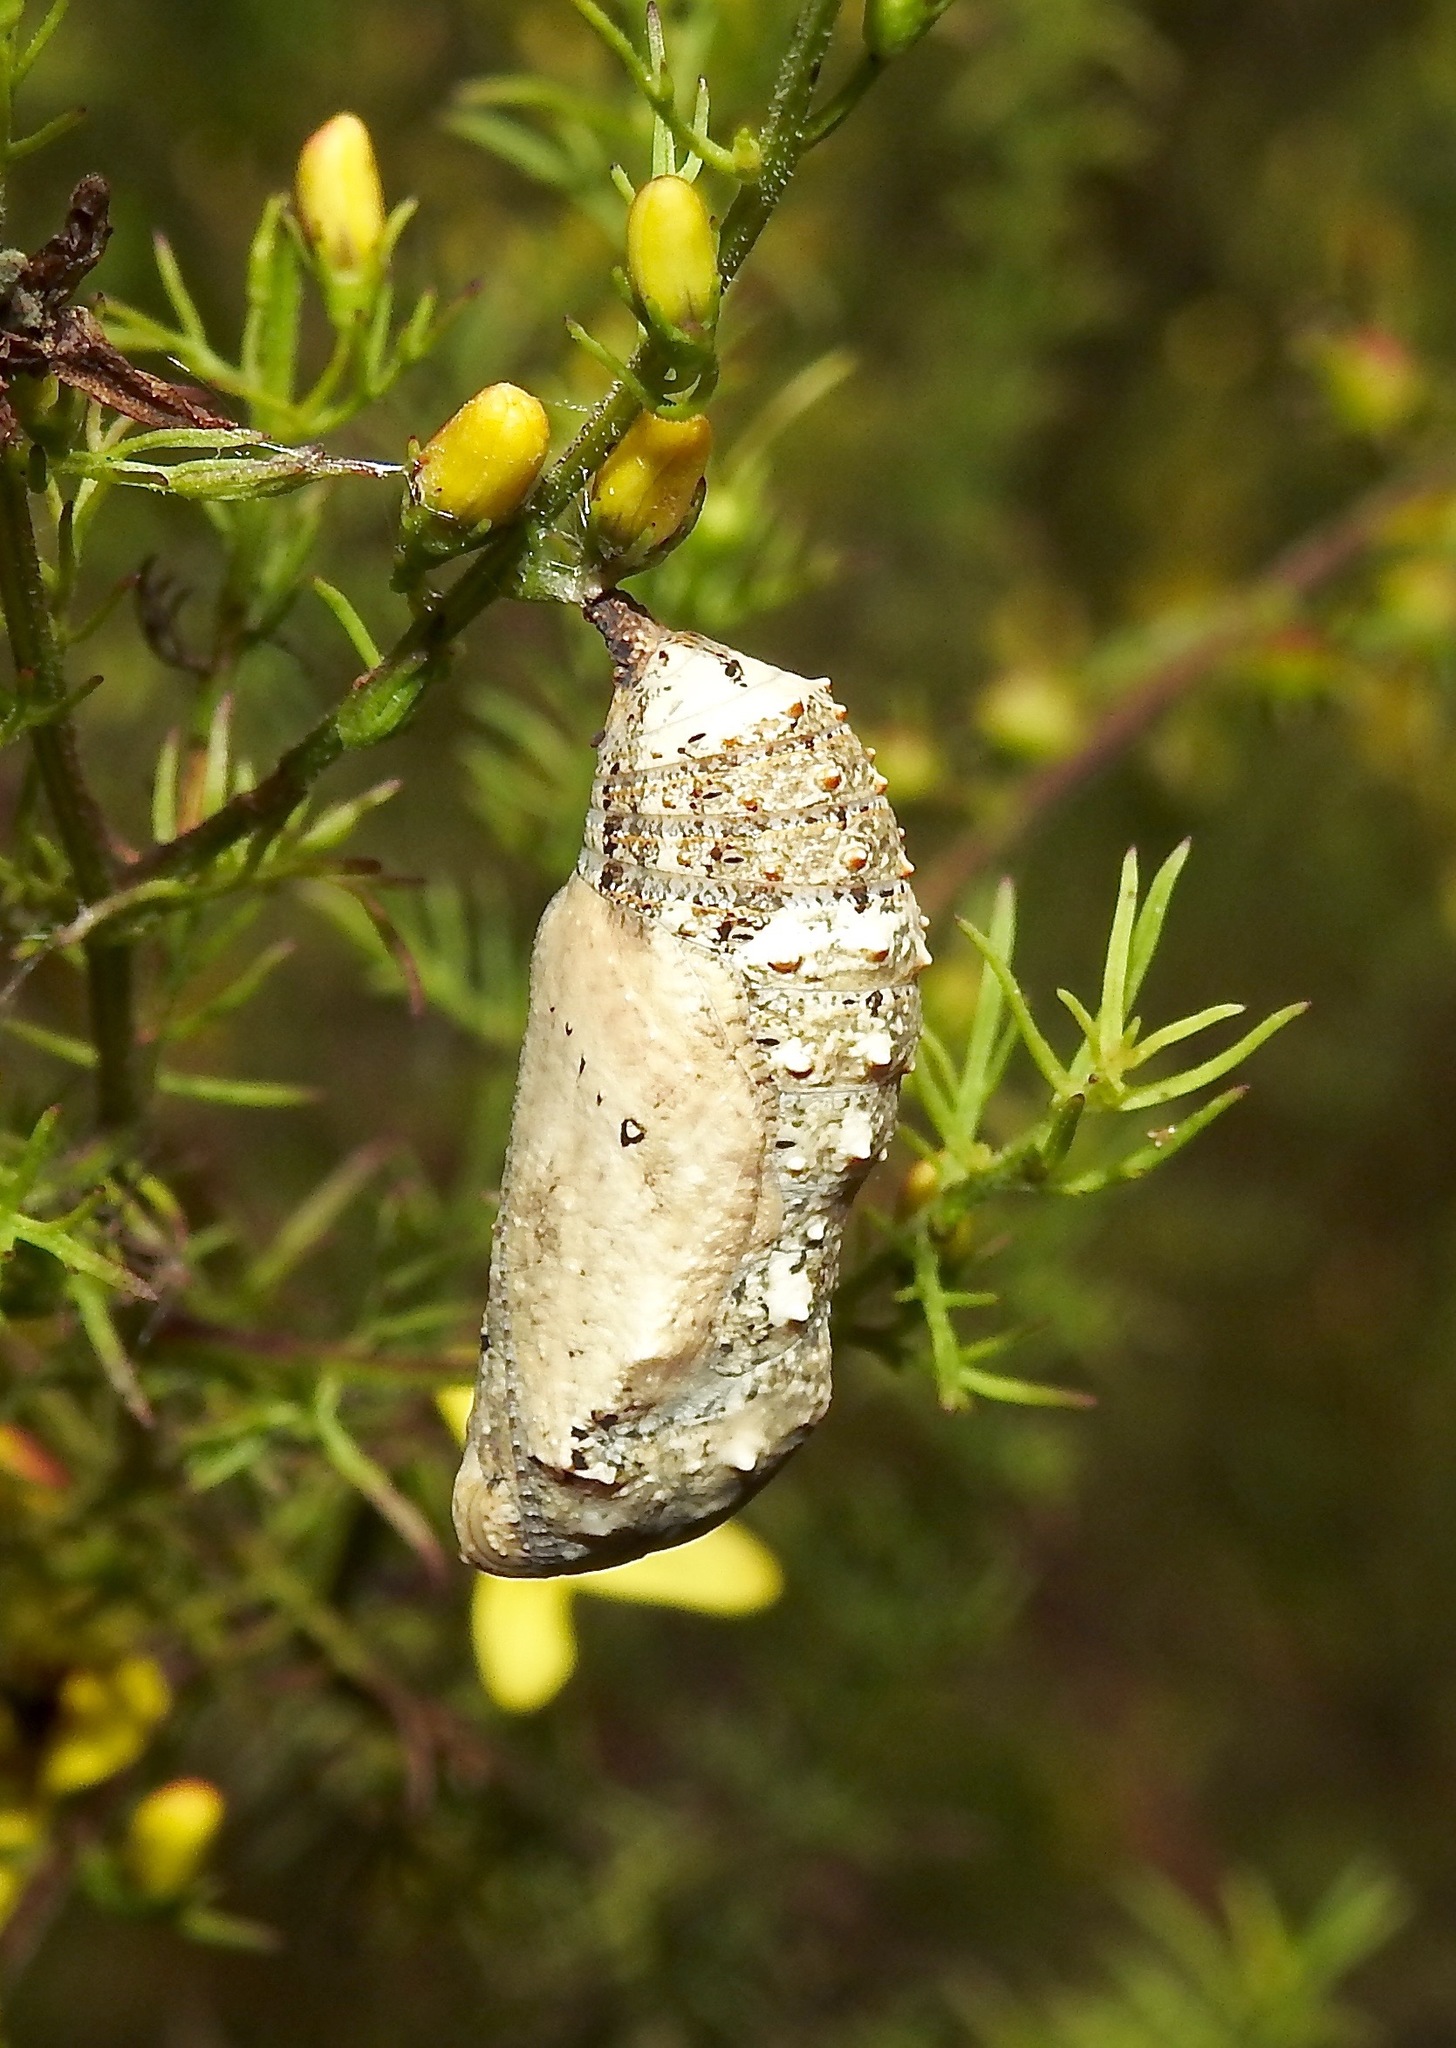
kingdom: Animalia
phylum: Arthropoda
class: Insecta
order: Lepidoptera
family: Nymphalidae
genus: Junonia
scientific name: Junonia coenia
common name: Common buckeye
